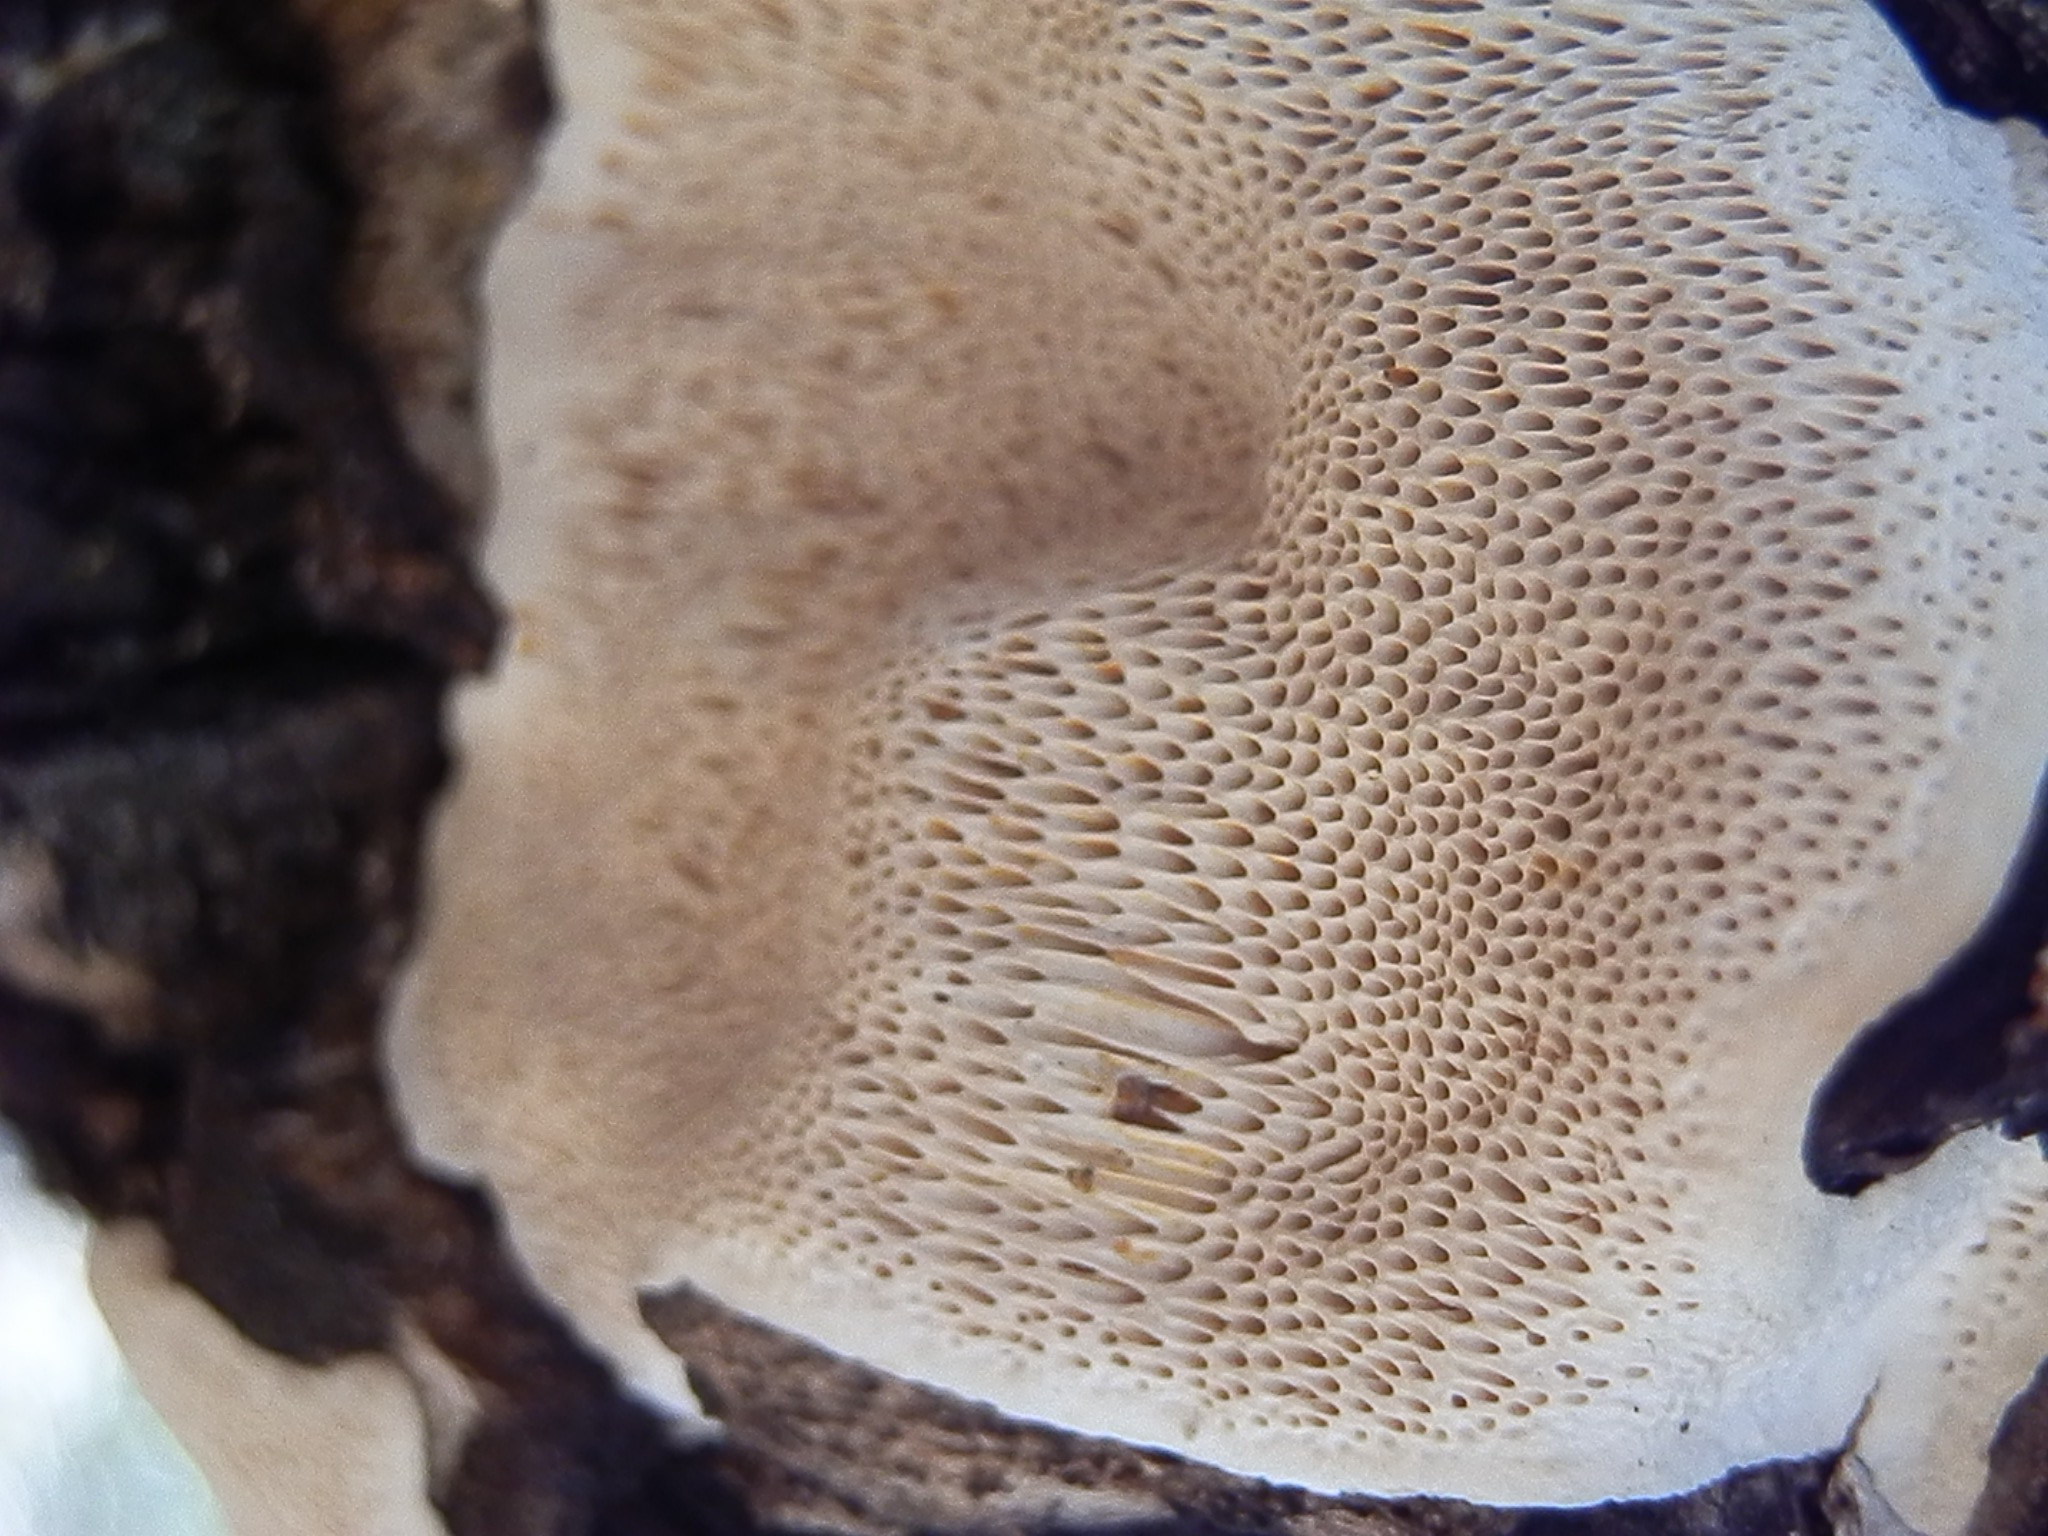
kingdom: Fungi
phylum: Basidiomycota
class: Agaricomycetes
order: Polyporales
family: Polyporaceae
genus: Perenniporia
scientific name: Perenniporia fraxinophila
